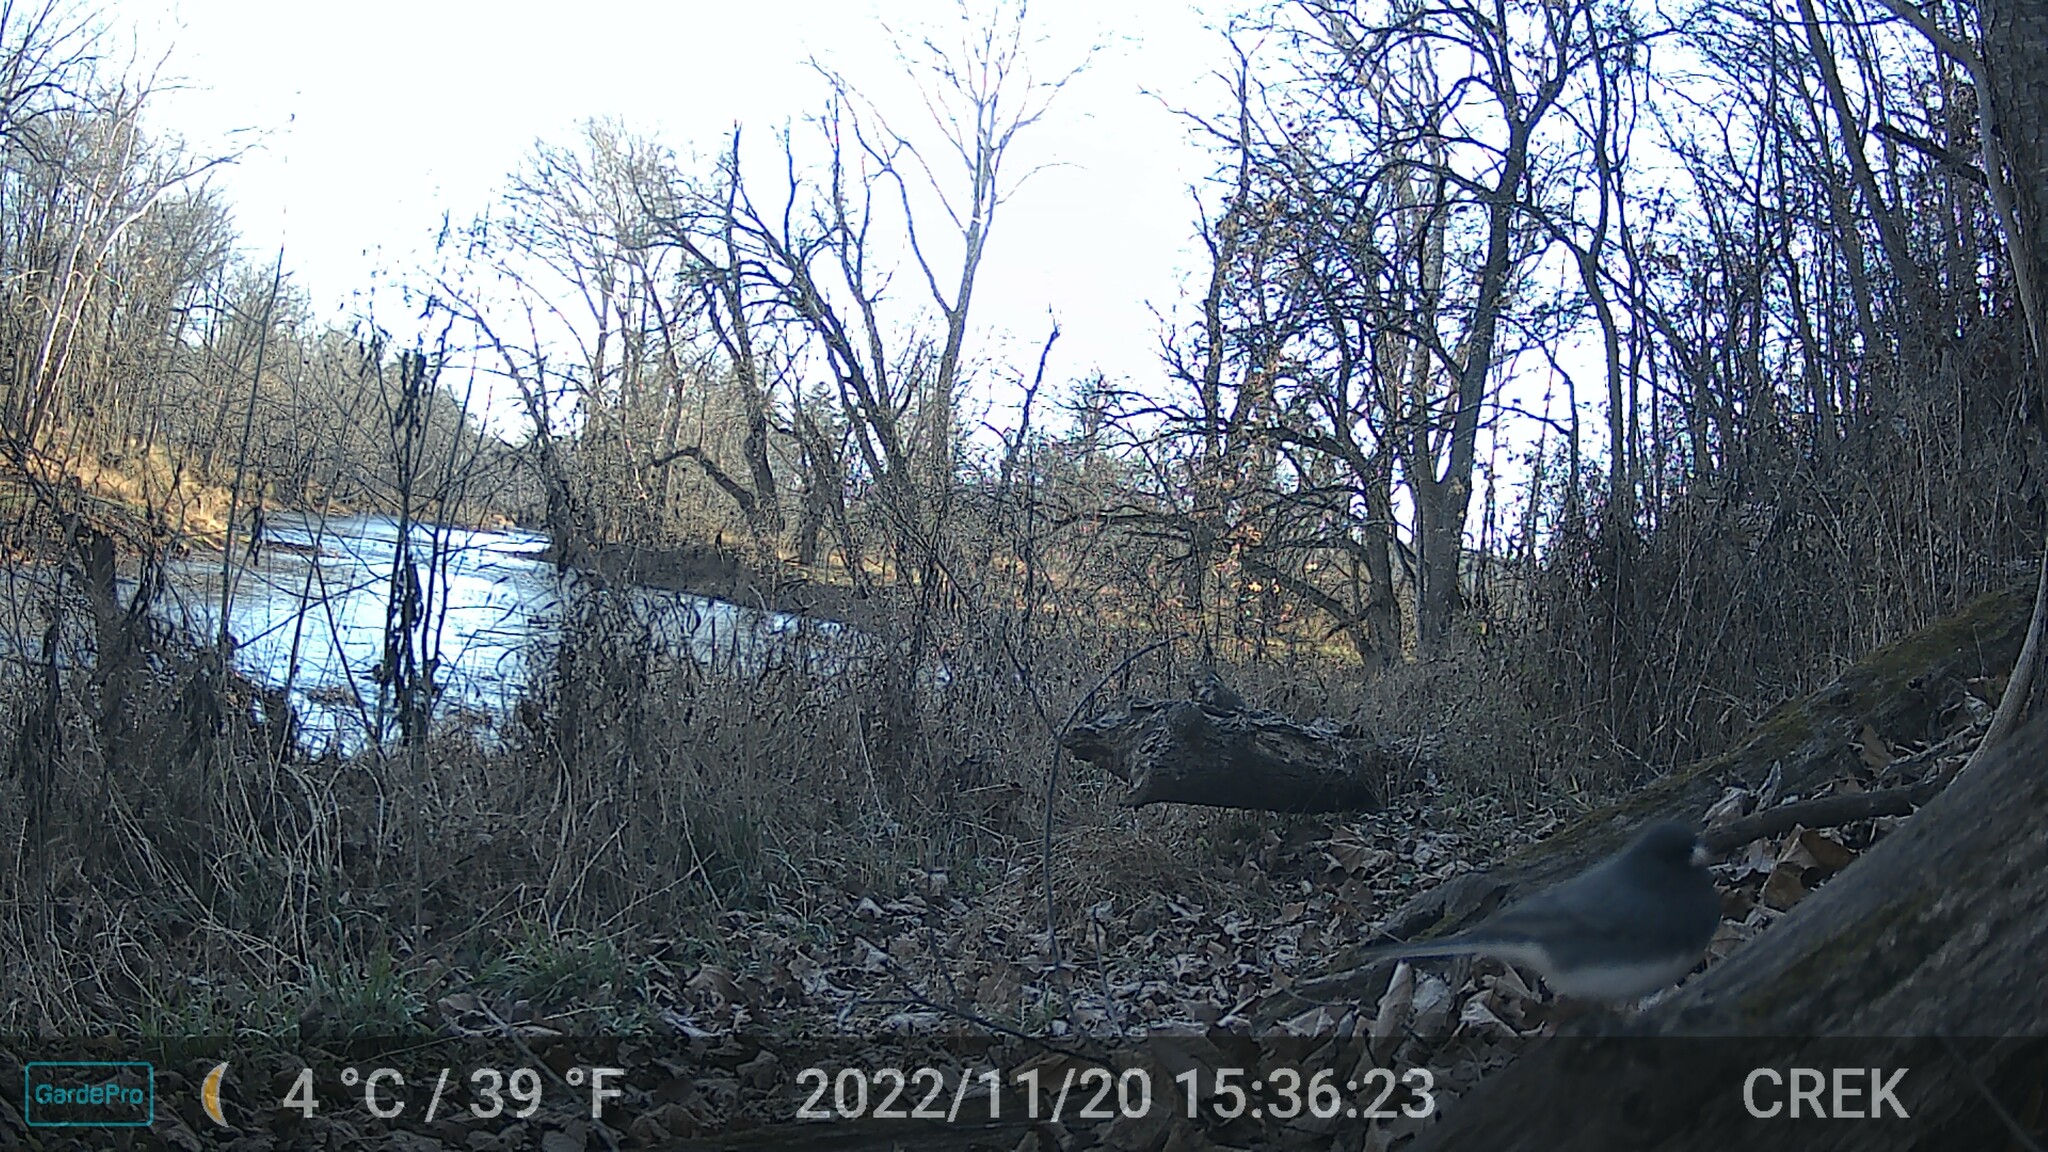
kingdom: Animalia
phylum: Chordata
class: Aves
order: Passeriformes
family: Passerellidae
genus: Junco
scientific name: Junco hyemalis
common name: Dark-eyed junco
